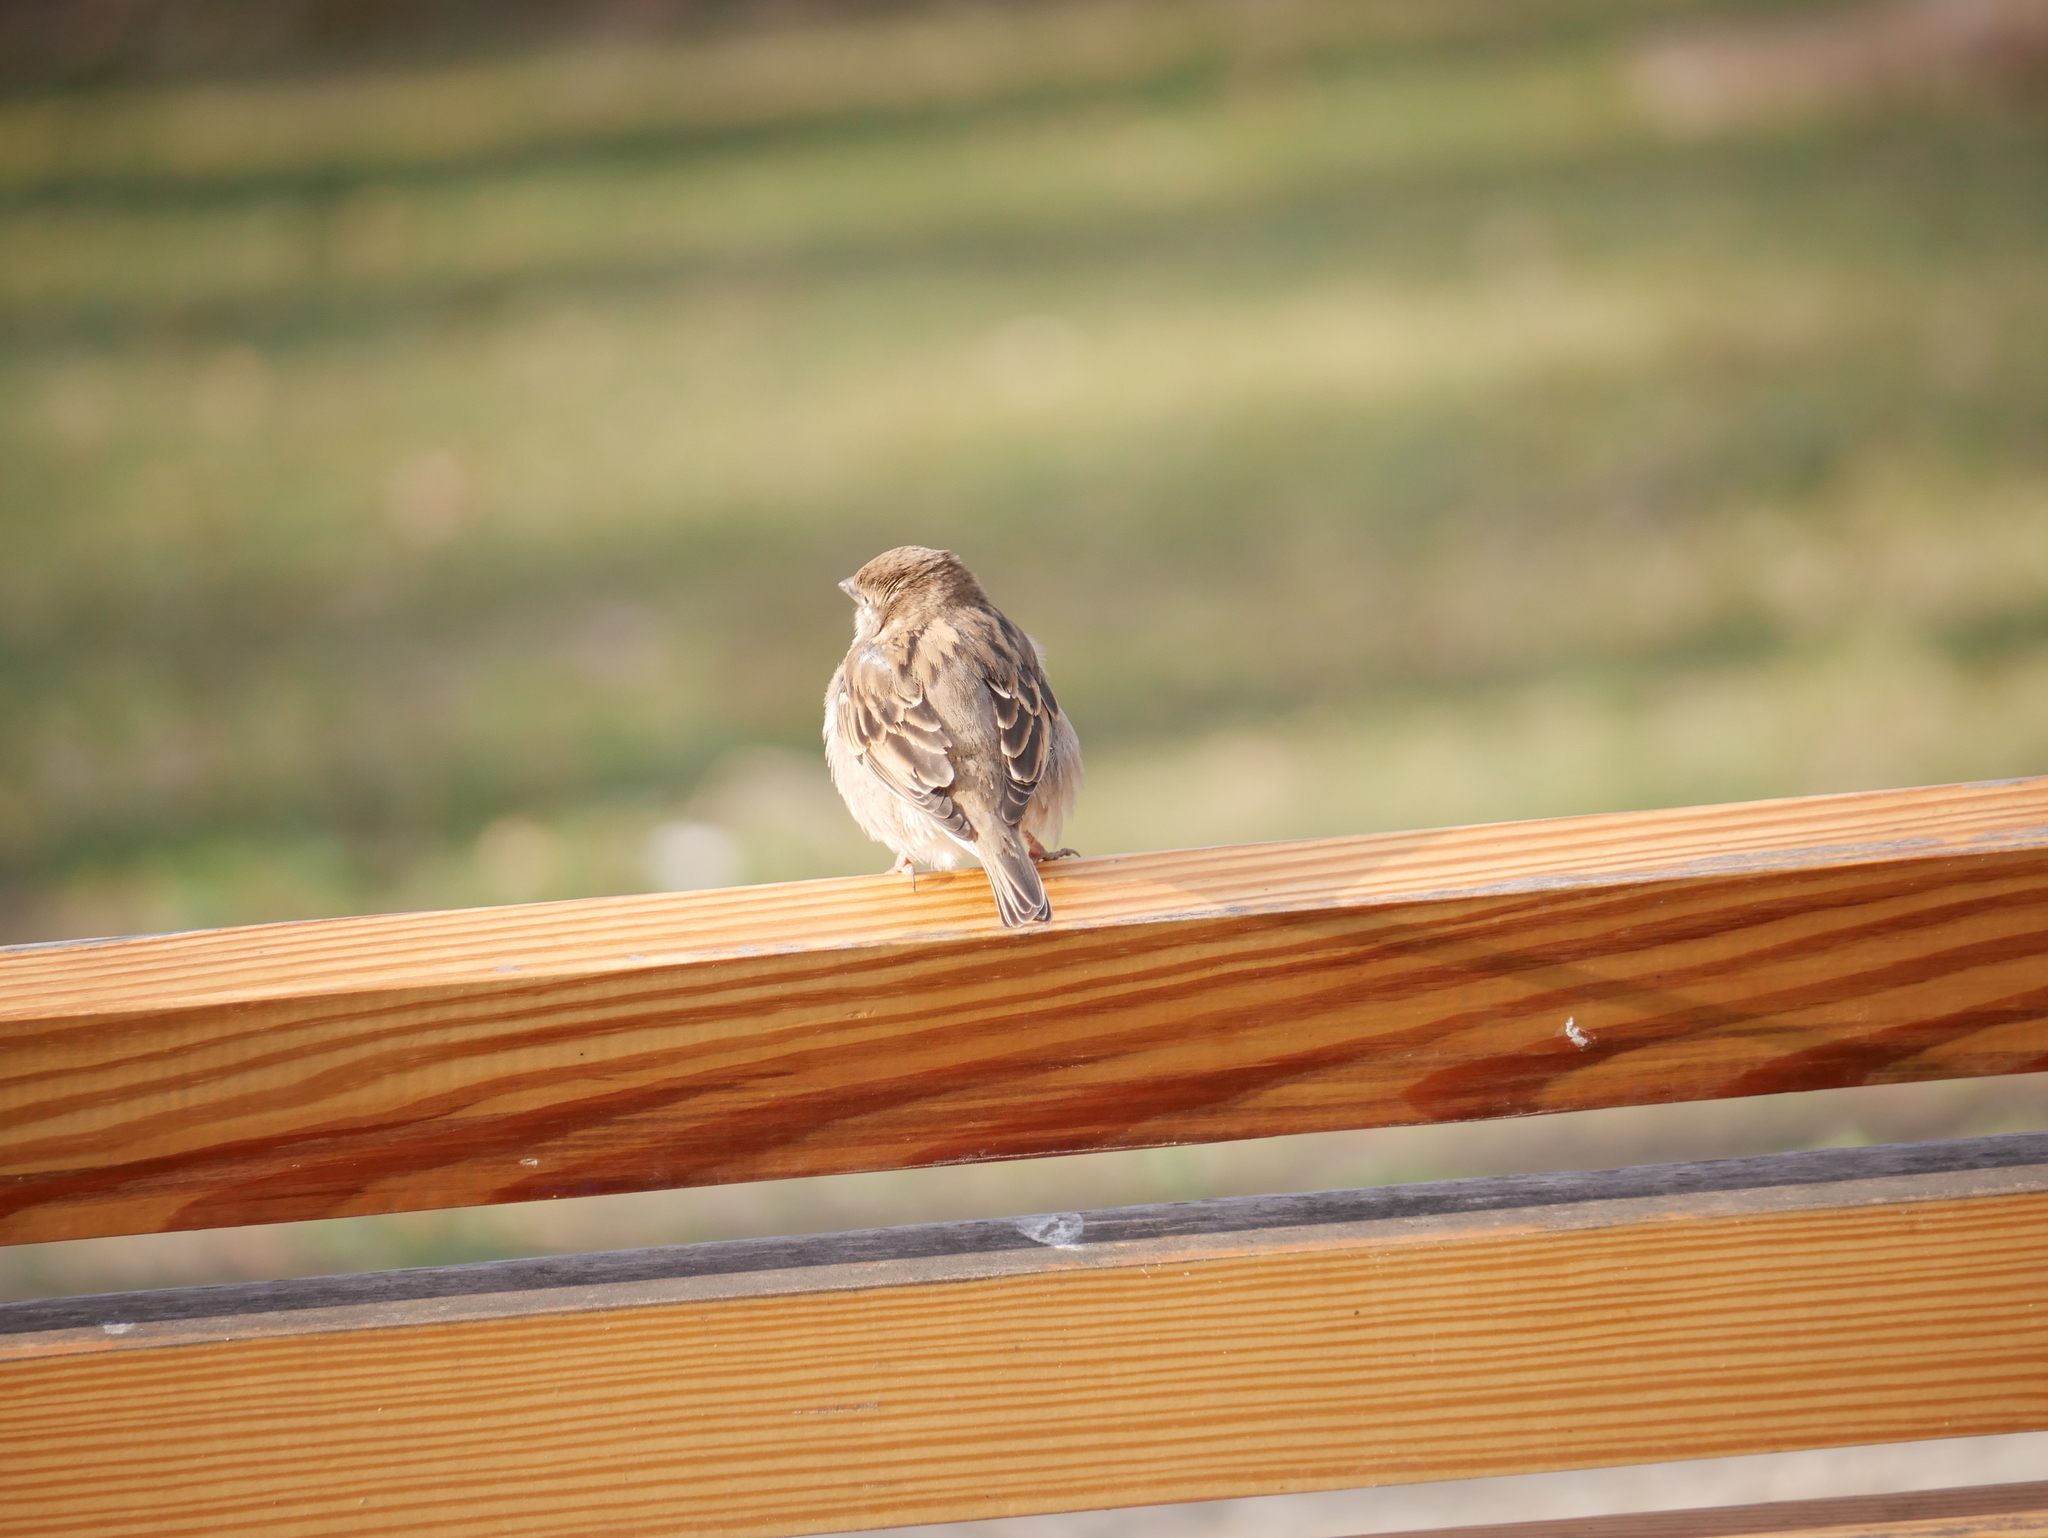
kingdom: Animalia
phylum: Chordata
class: Aves
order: Passeriformes
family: Passeridae
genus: Passer
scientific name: Passer domesticus
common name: House sparrow
